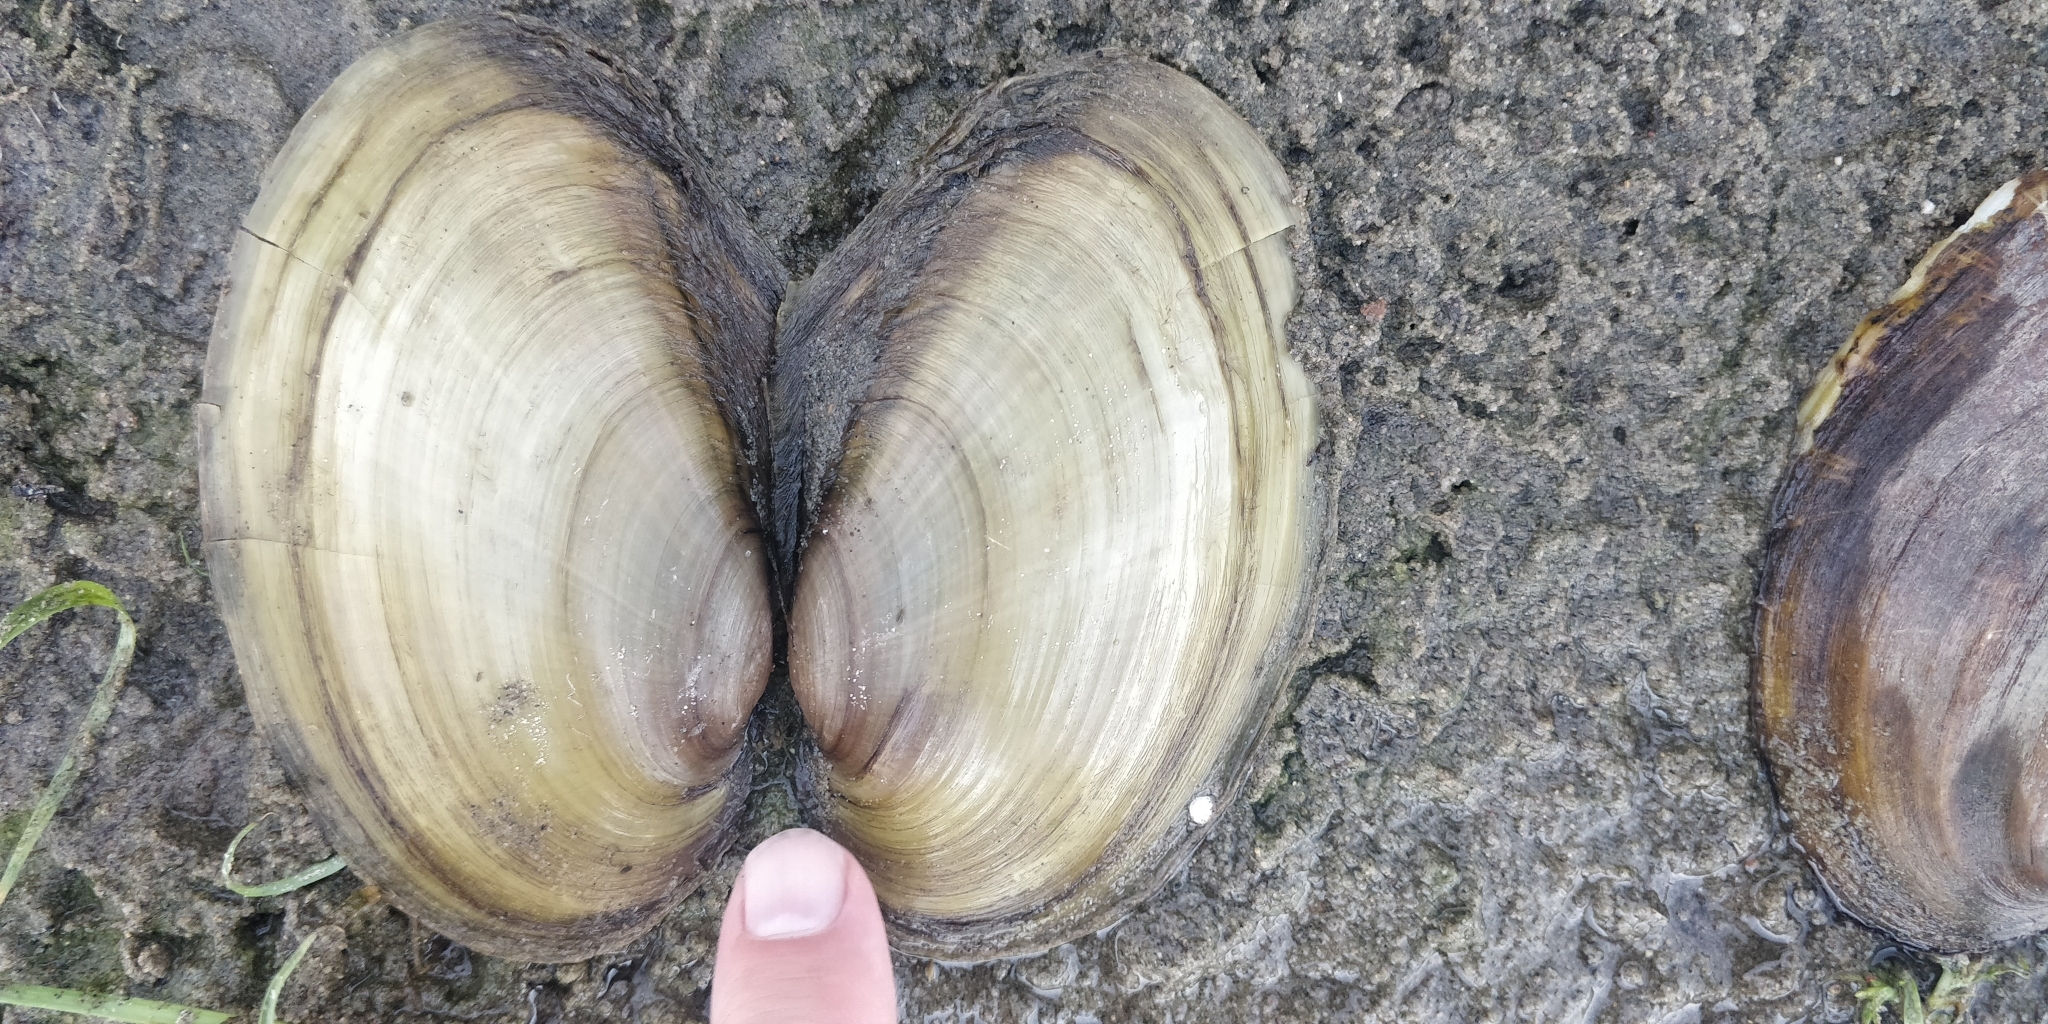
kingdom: Animalia
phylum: Mollusca
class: Bivalvia
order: Unionida
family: Unionidae
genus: Potamilus
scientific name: Potamilus fragilis
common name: Fragile papershell
